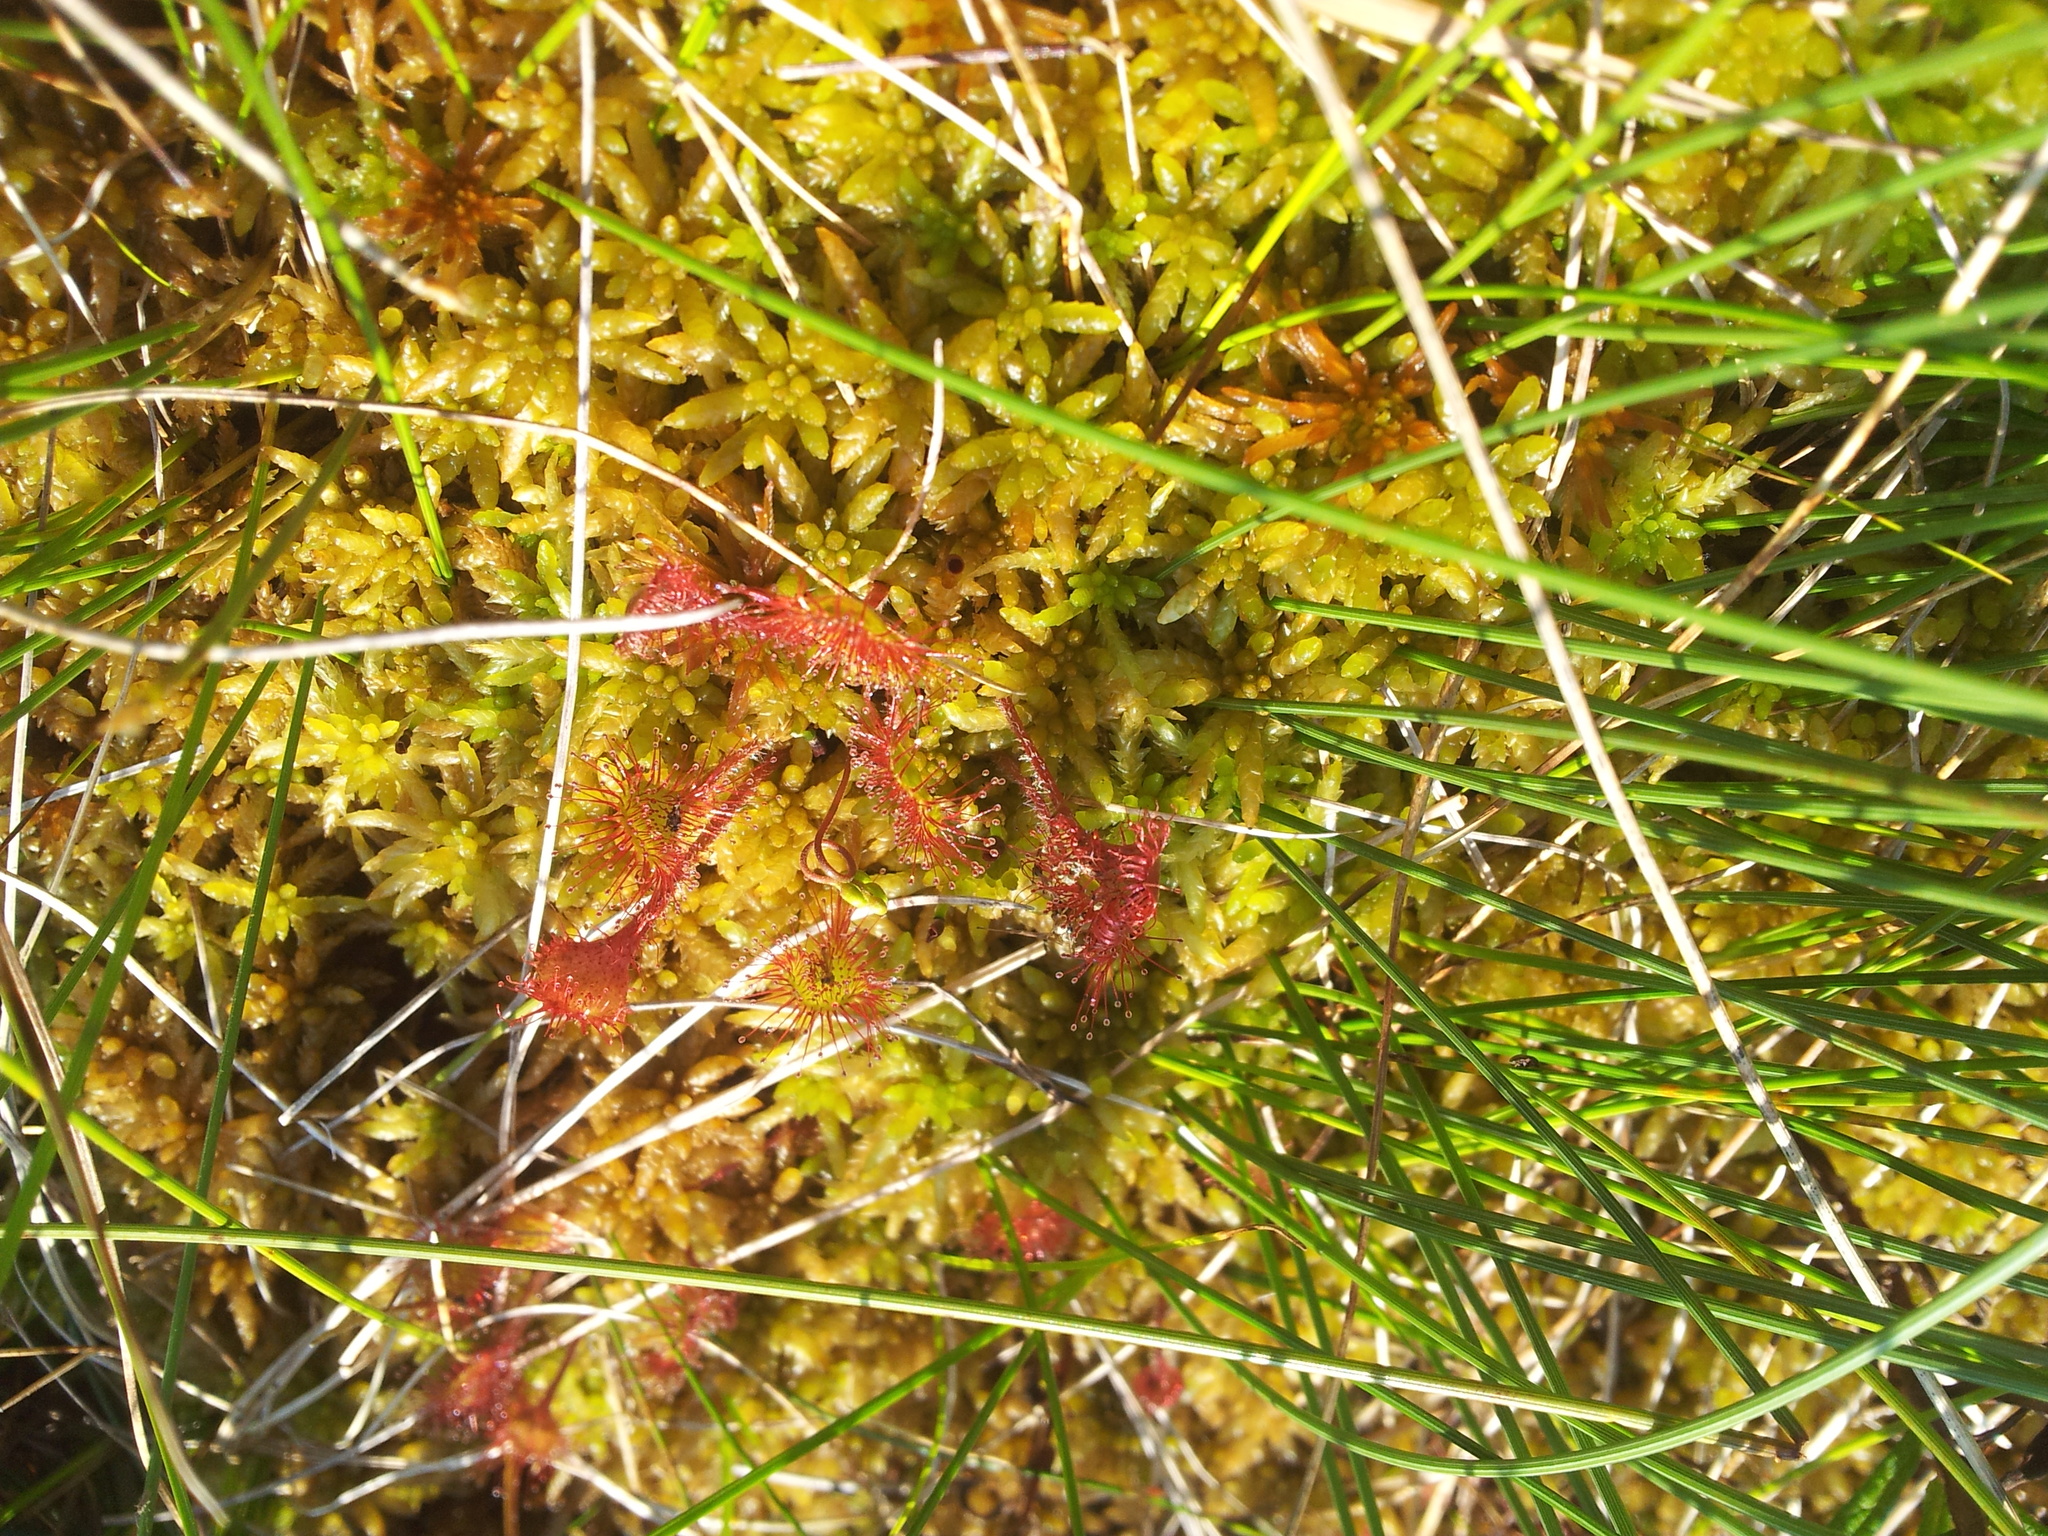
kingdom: Plantae
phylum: Tracheophyta
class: Magnoliopsida
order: Caryophyllales
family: Droseraceae
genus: Drosera
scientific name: Drosera rotundifolia
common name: Round-leaved sundew
